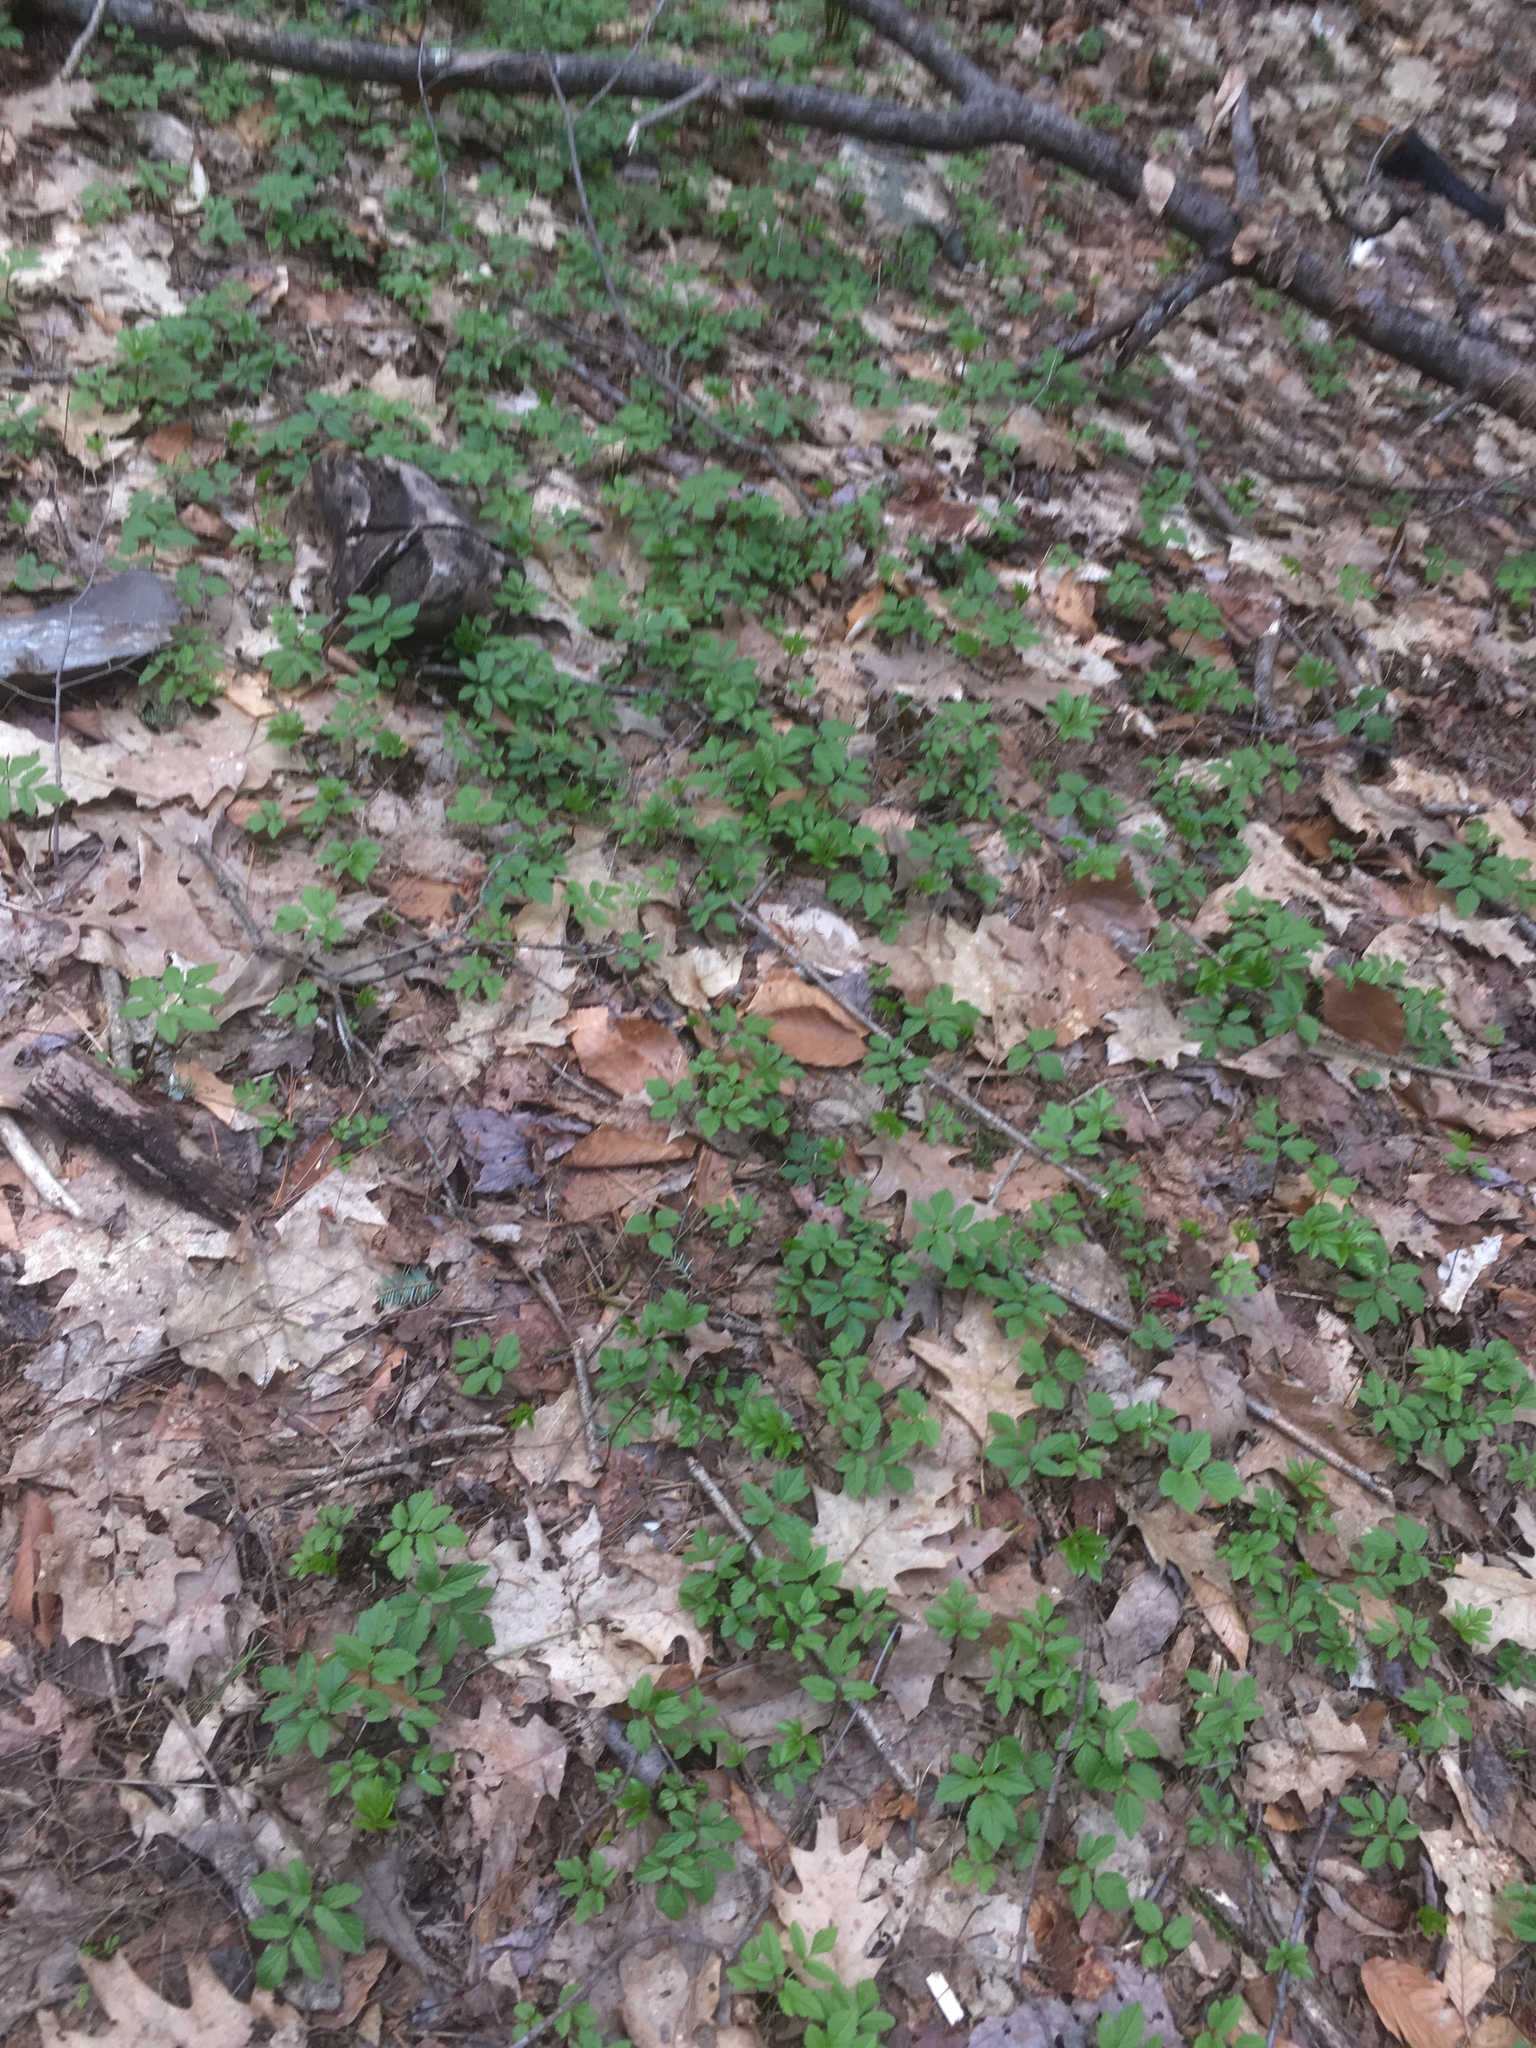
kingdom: Plantae
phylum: Tracheophyta
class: Magnoliopsida
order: Apiales
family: Apiaceae
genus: Aegopodium
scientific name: Aegopodium podagraria
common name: Ground-elder
